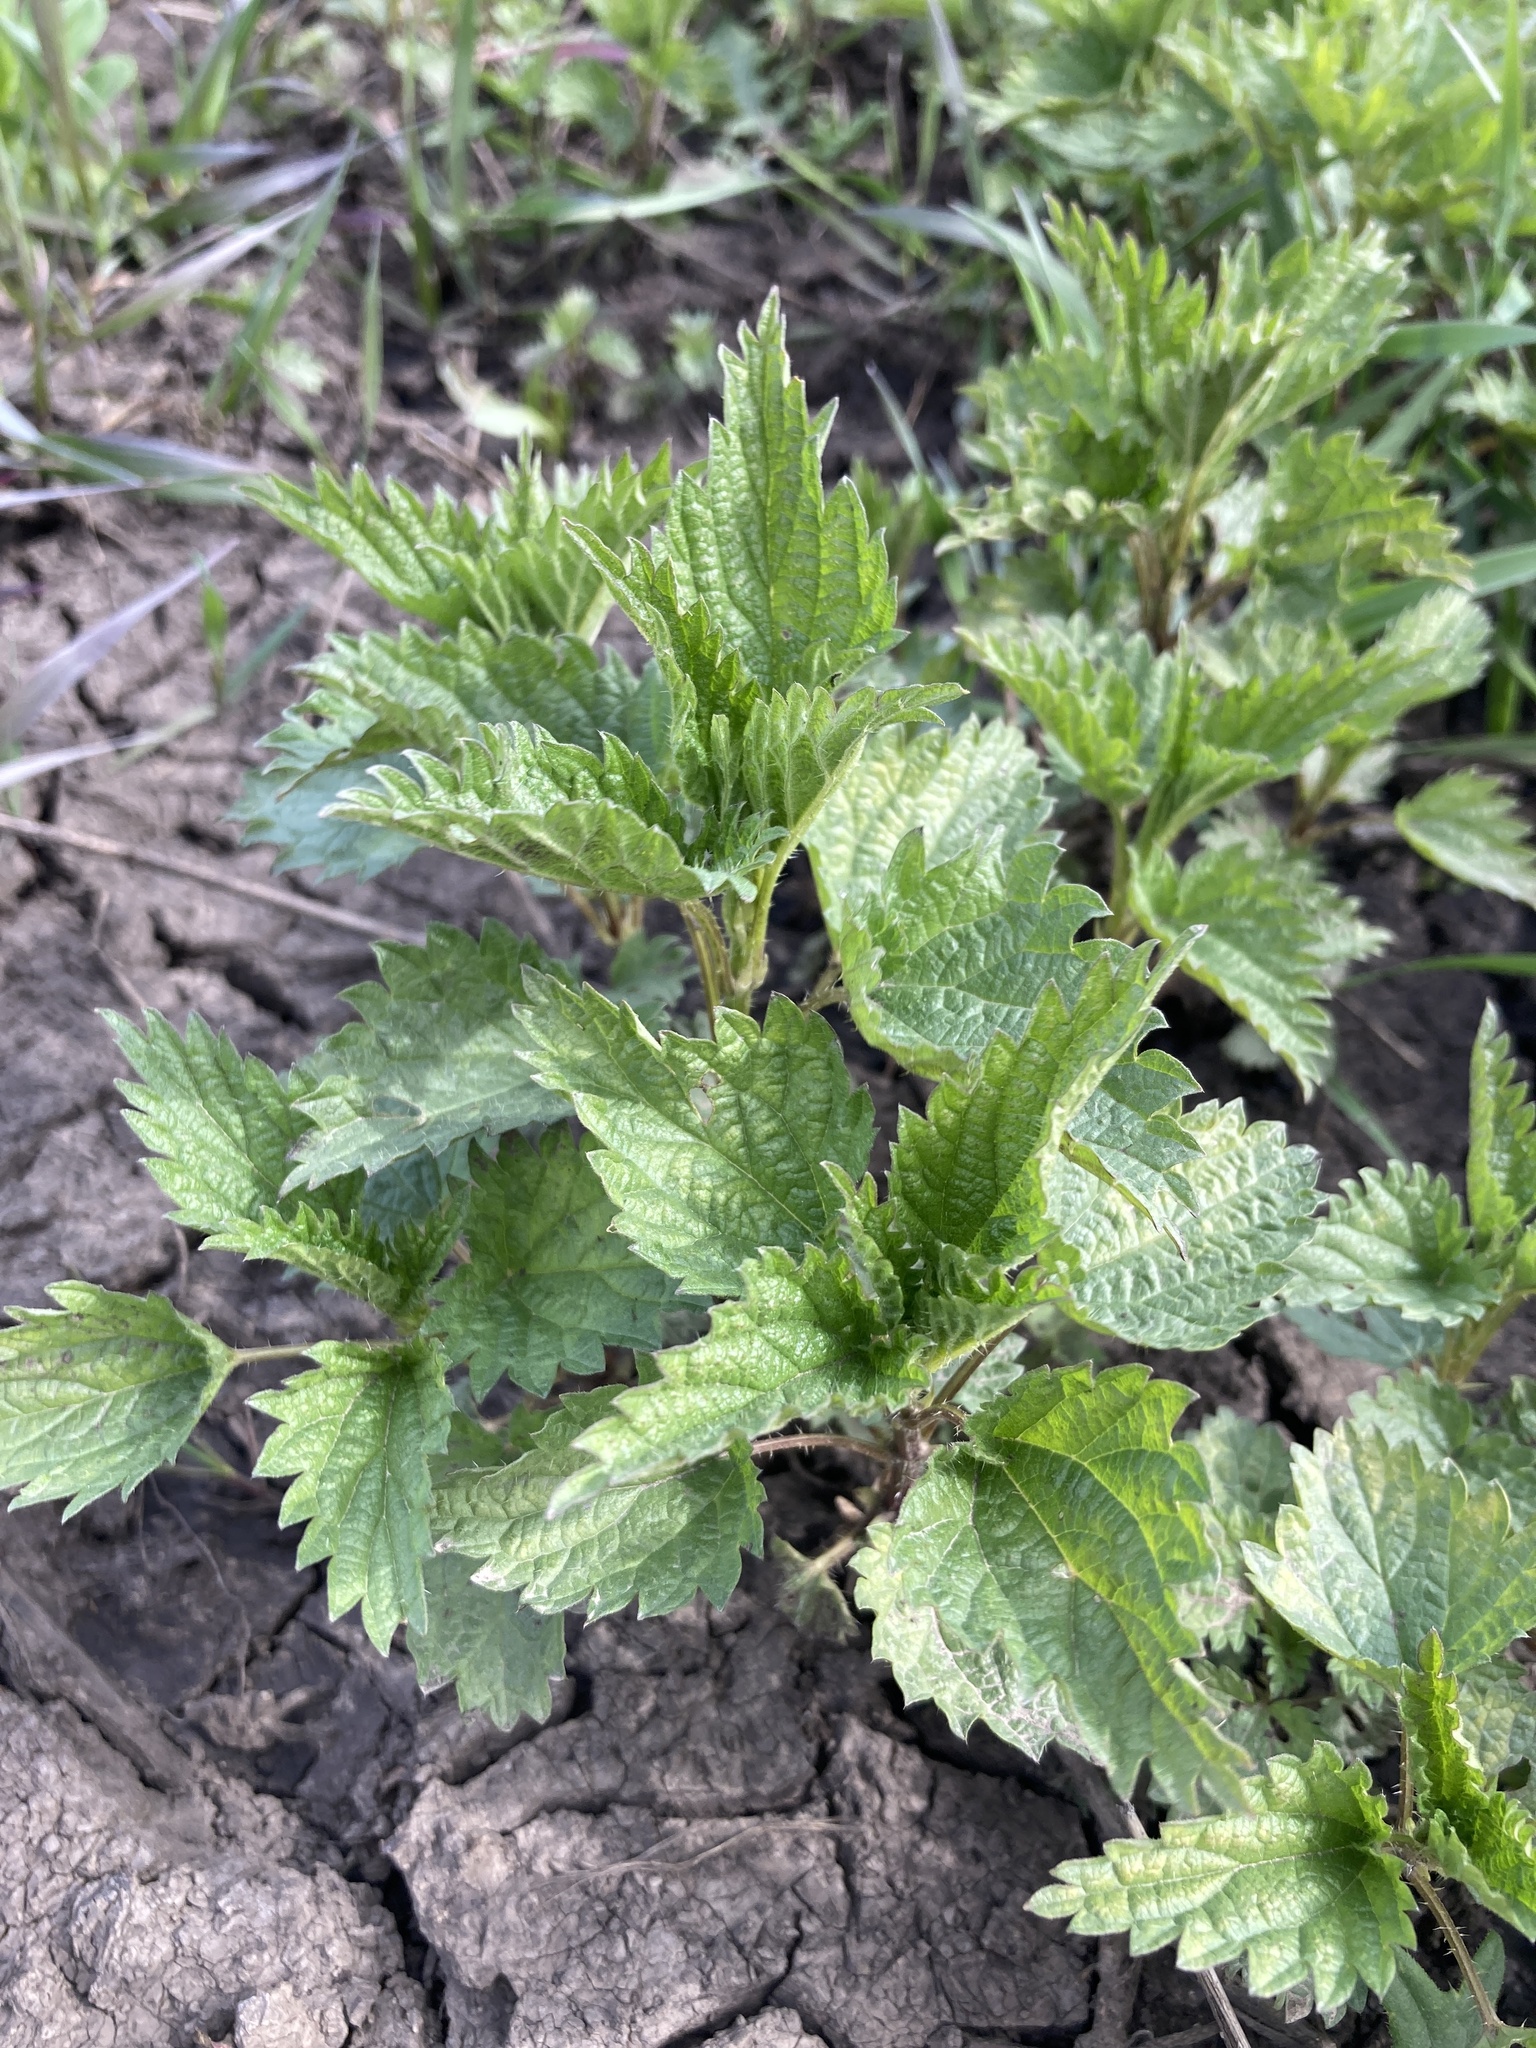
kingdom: Plantae
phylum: Tracheophyta
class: Magnoliopsida
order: Rosales
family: Urticaceae
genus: Urtica
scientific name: Urtica dioica
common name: Common nettle
